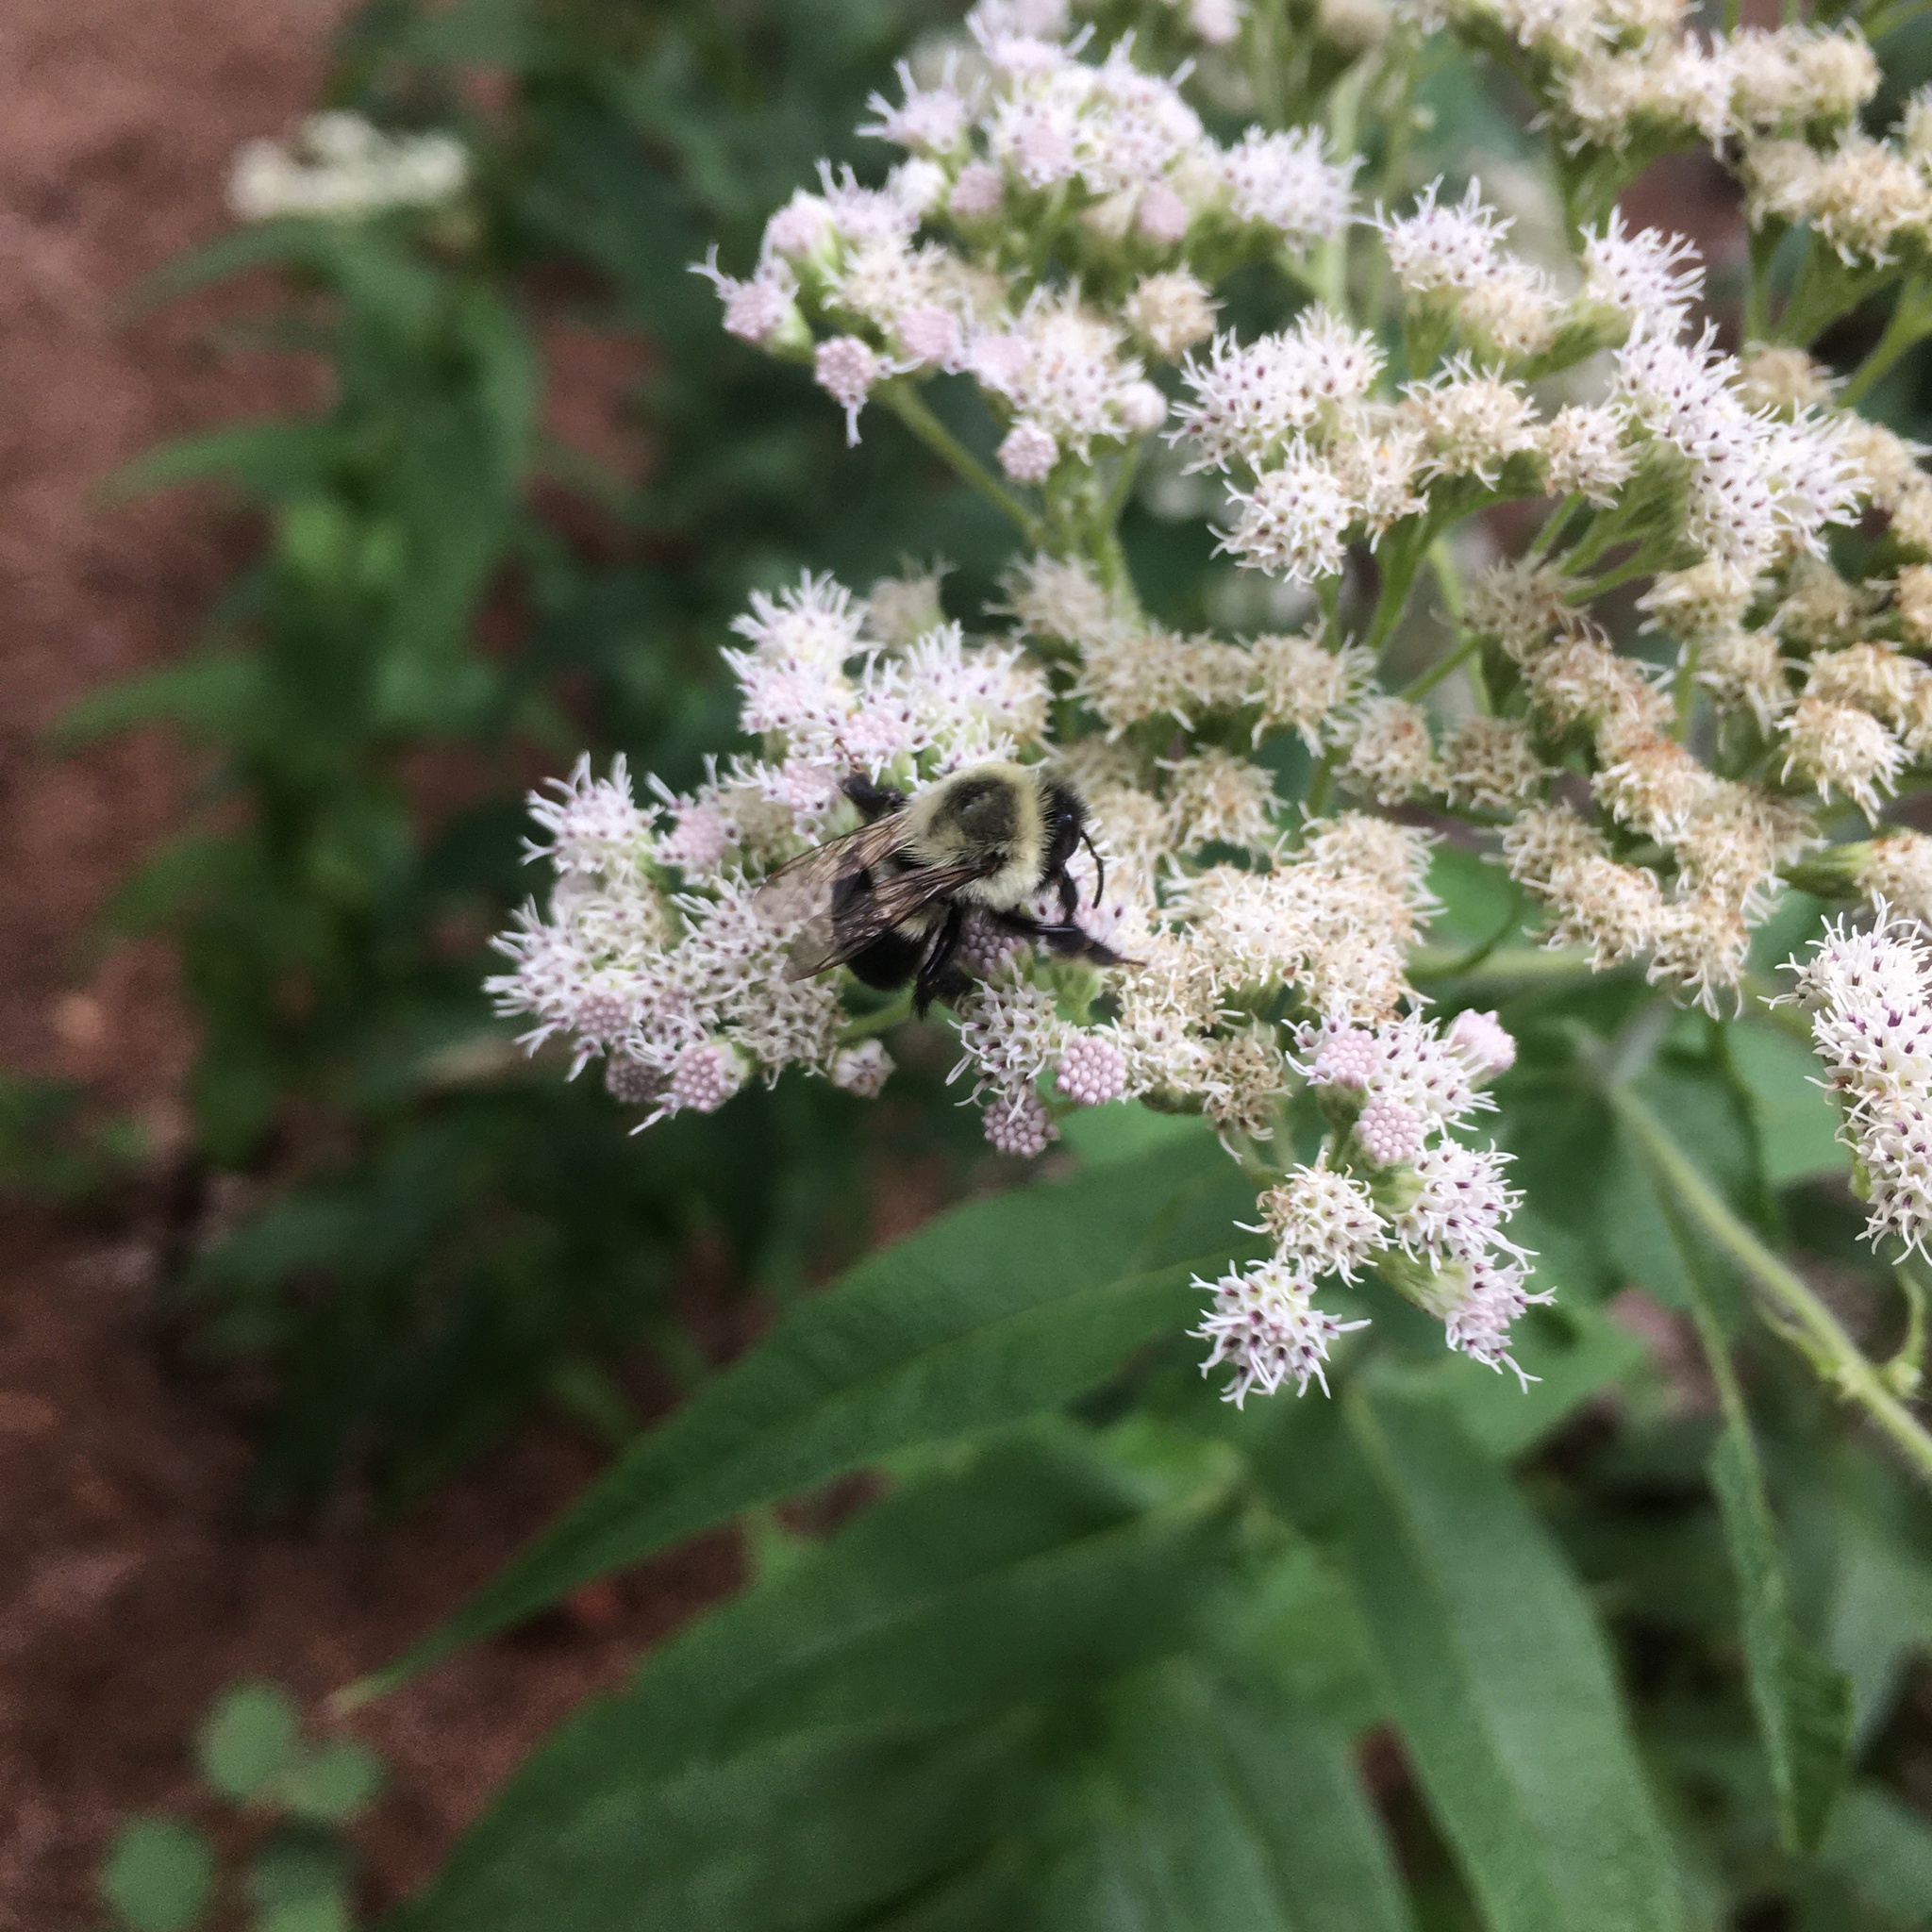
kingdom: Animalia
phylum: Arthropoda
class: Insecta
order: Hymenoptera
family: Apidae
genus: Bombus
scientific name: Bombus impatiens
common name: Common eastern bumble bee
